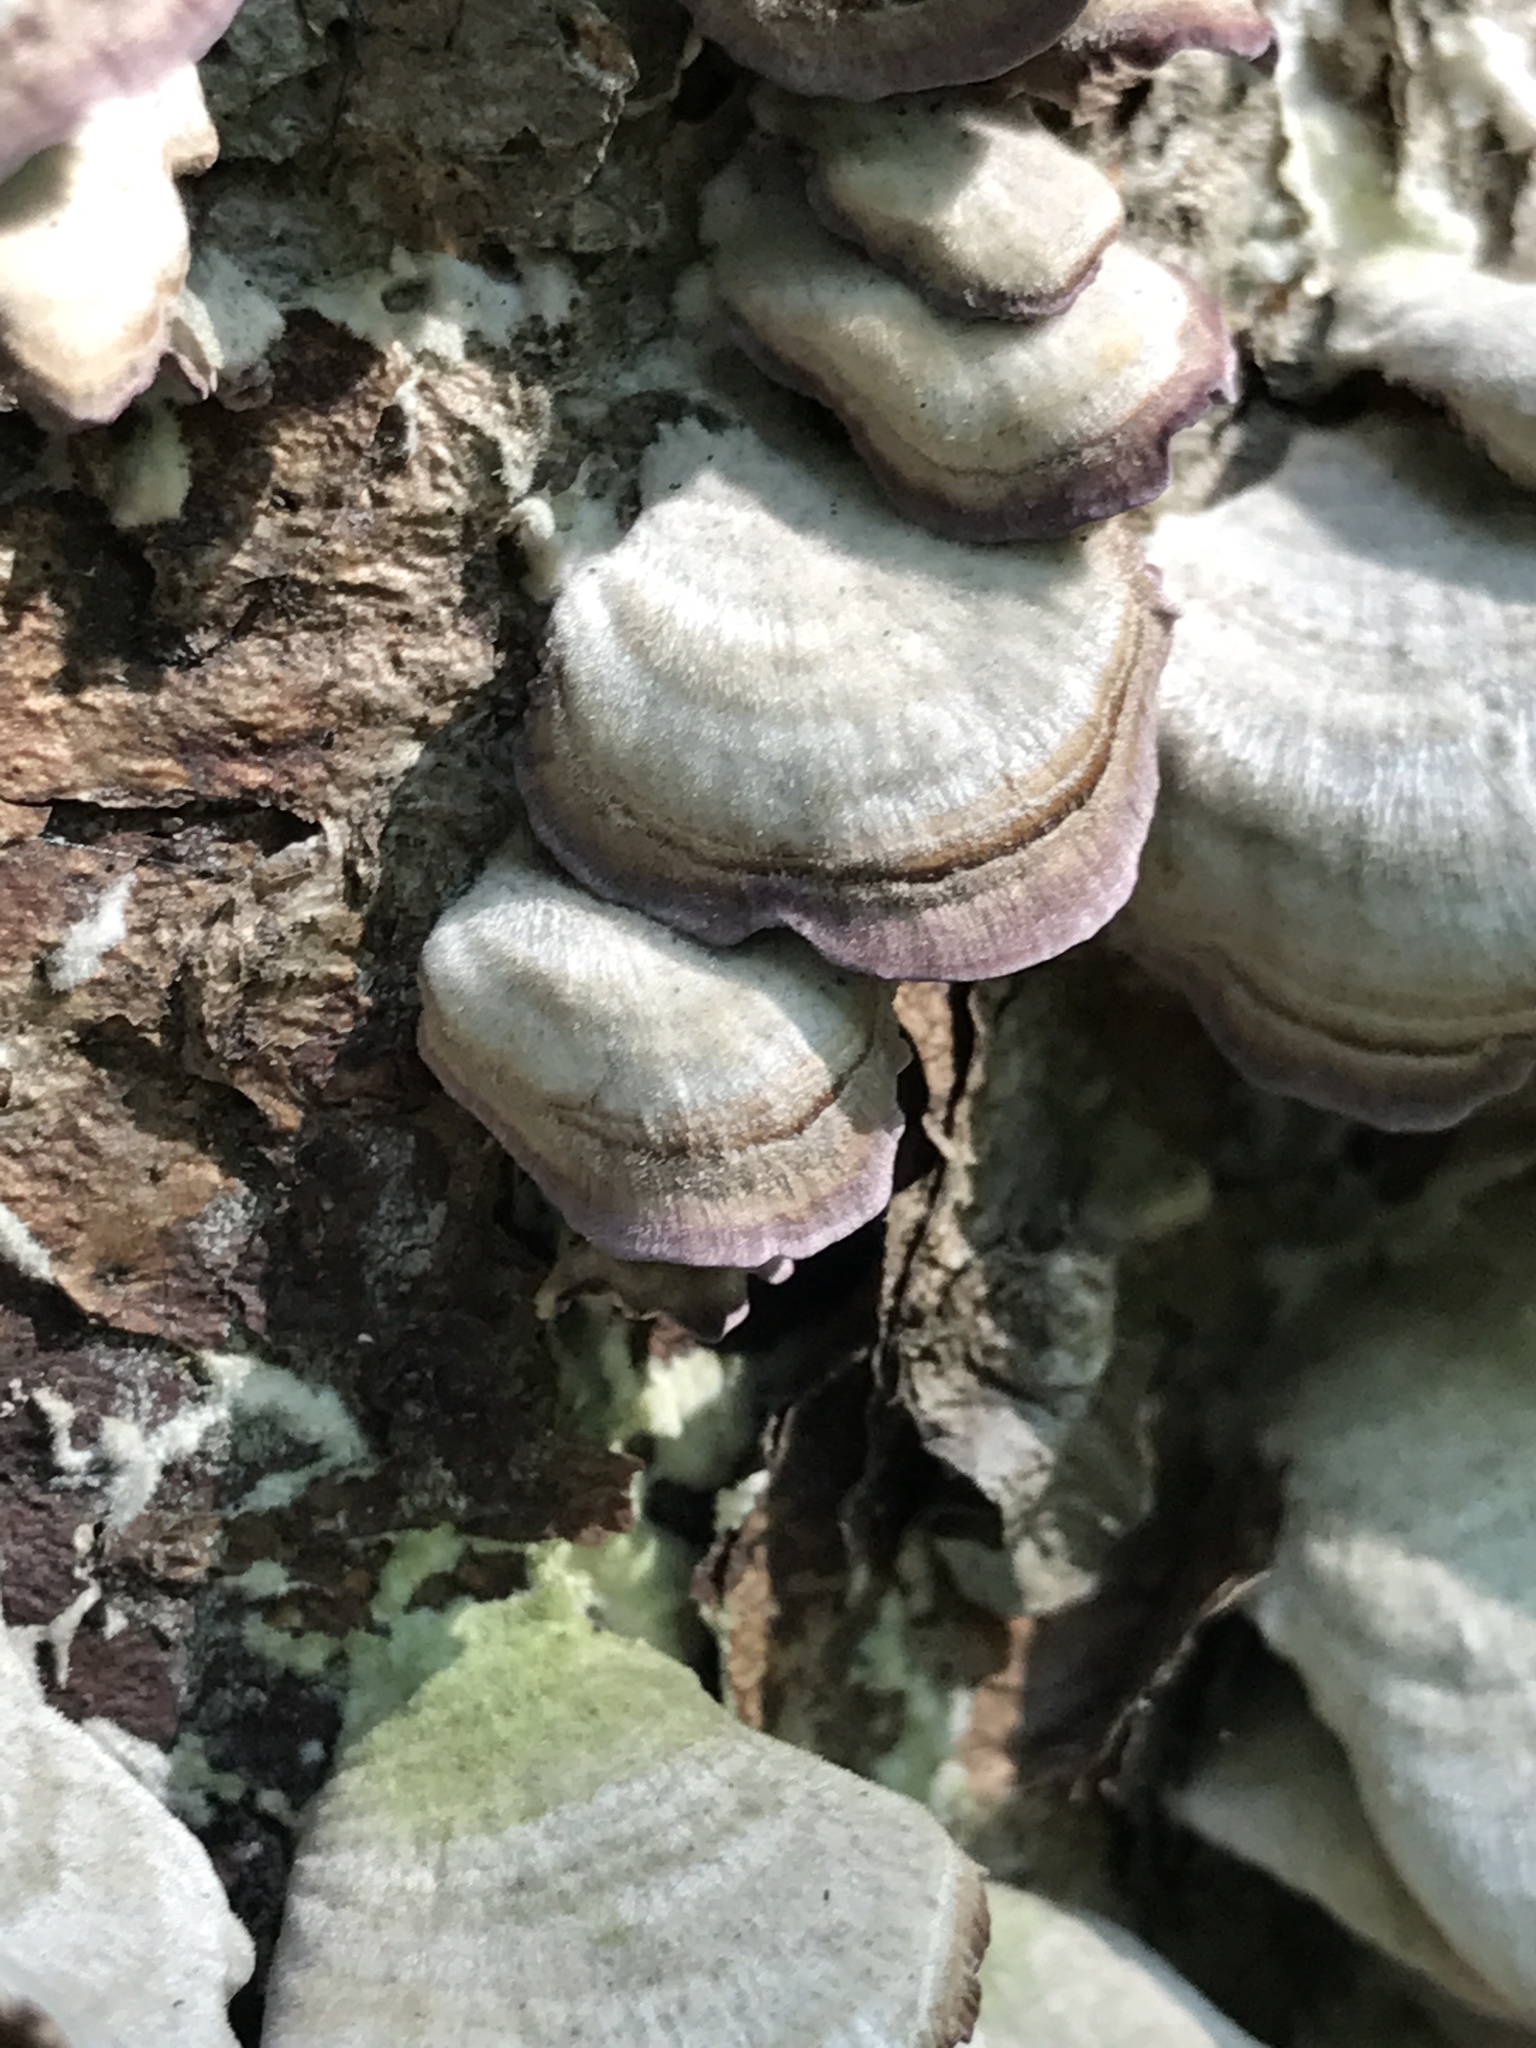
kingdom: Fungi
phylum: Basidiomycota
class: Agaricomycetes
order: Hymenochaetales
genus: Trichaptum
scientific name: Trichaptum biforme
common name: Violet-toothed polypore
